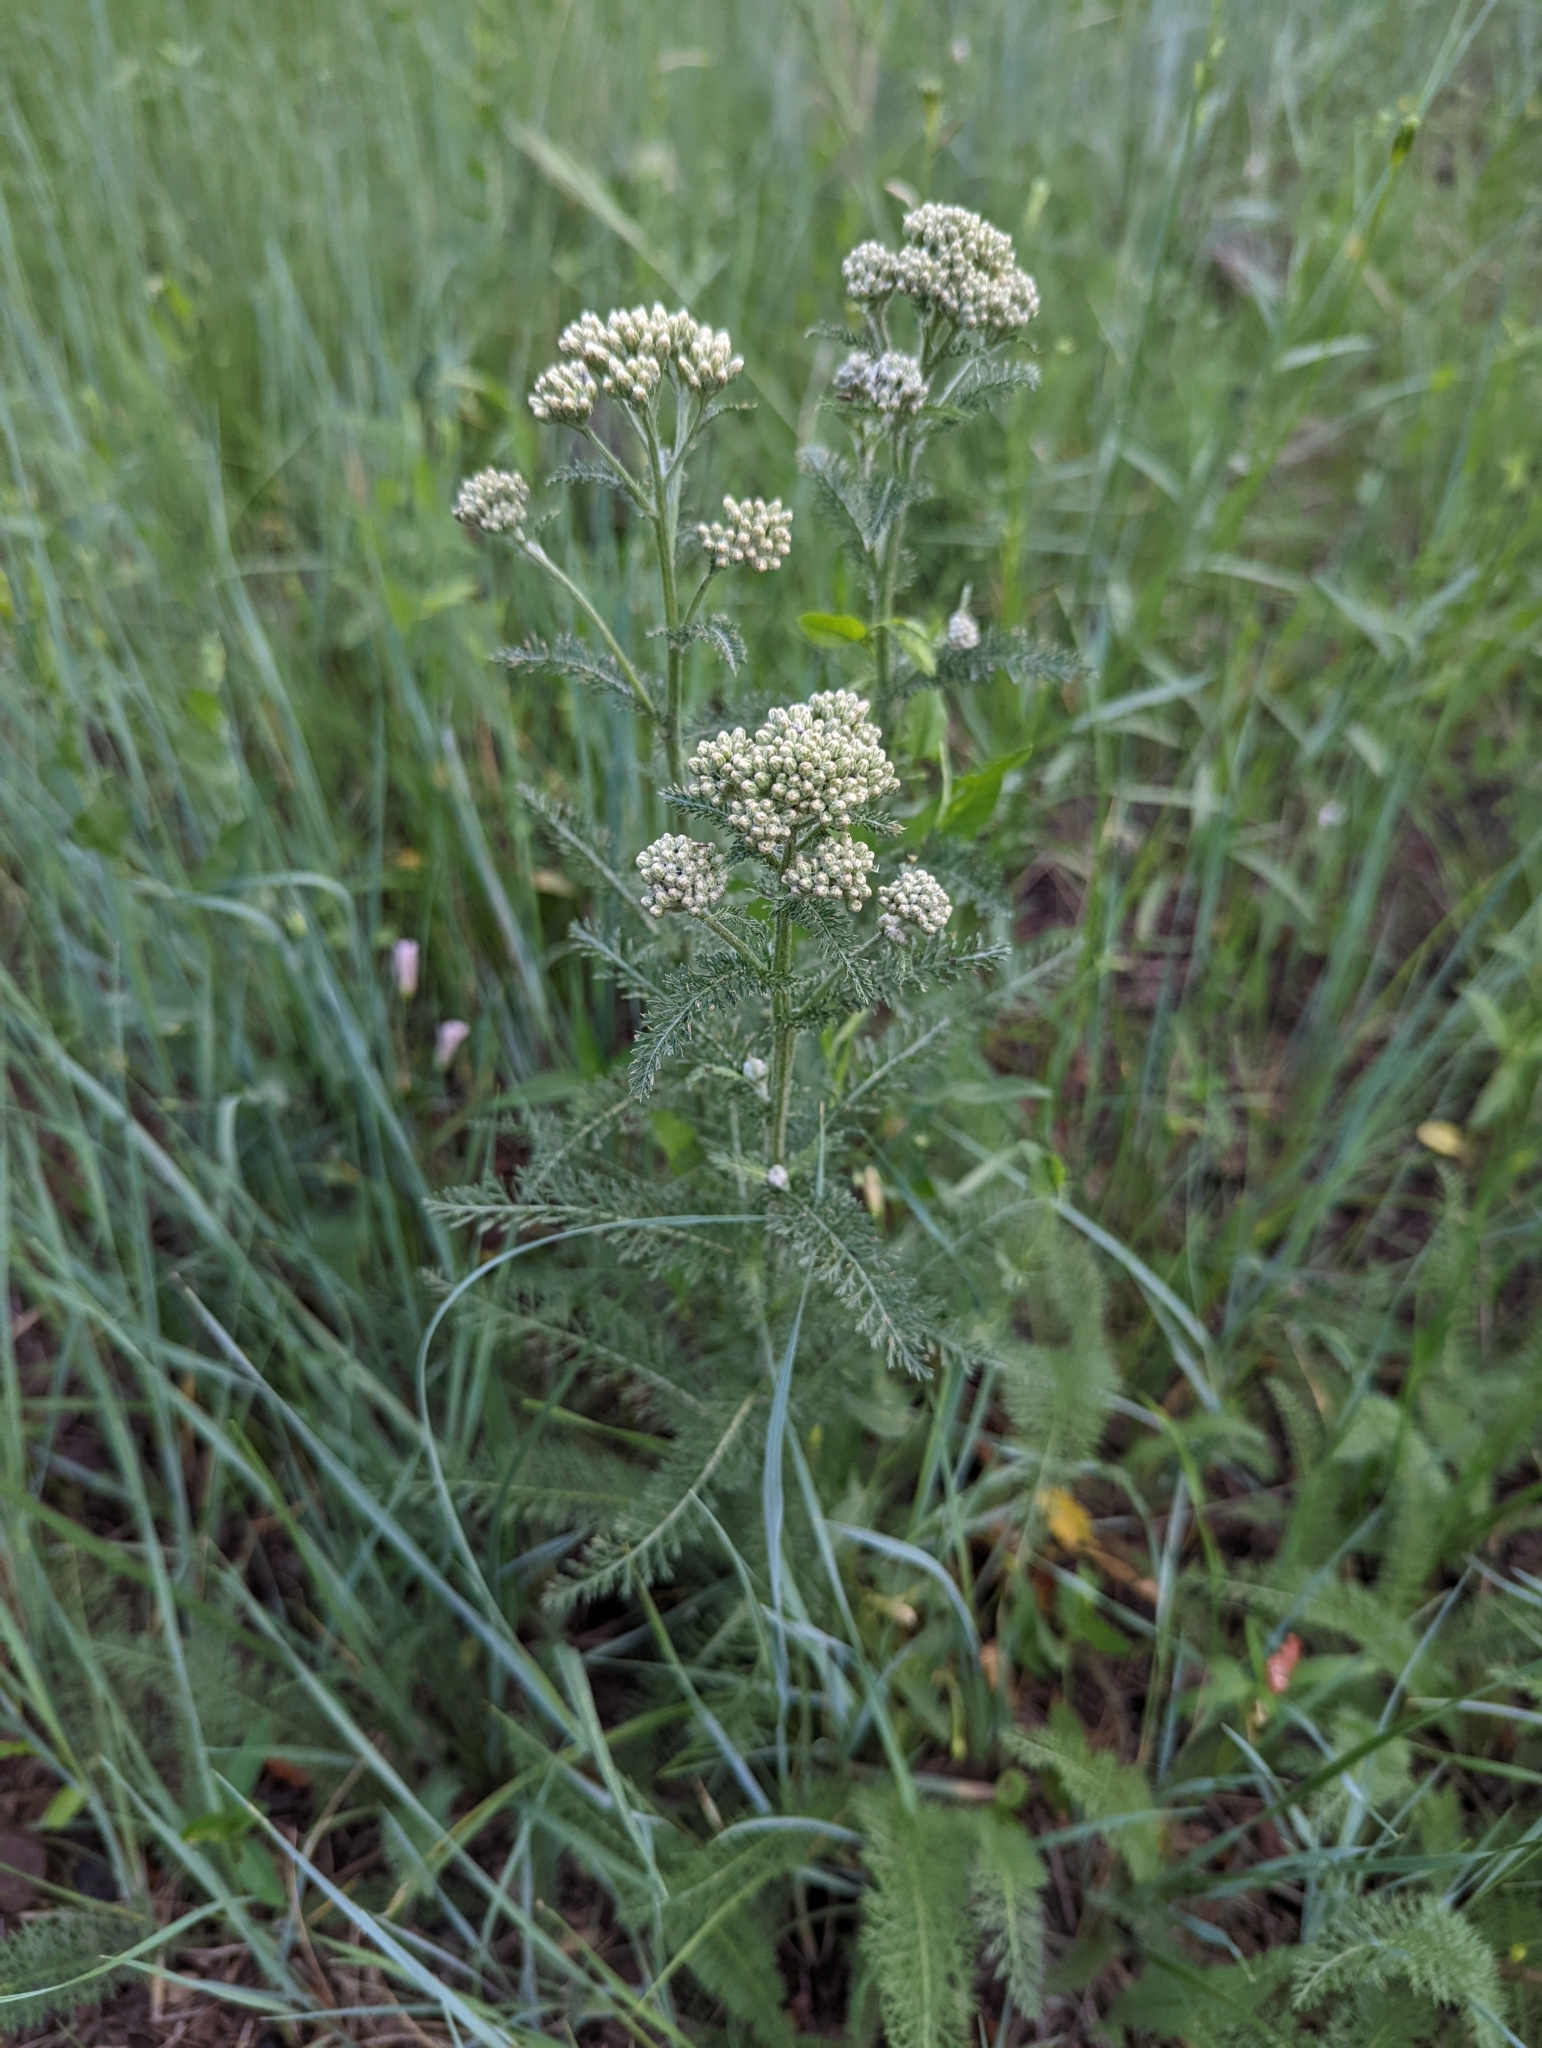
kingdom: Plantae
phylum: Tracheophyta
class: Magnoliopsida
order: Asterales
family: Asteraceae
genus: Achillea
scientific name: Achillea millefolium
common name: Yarrow
